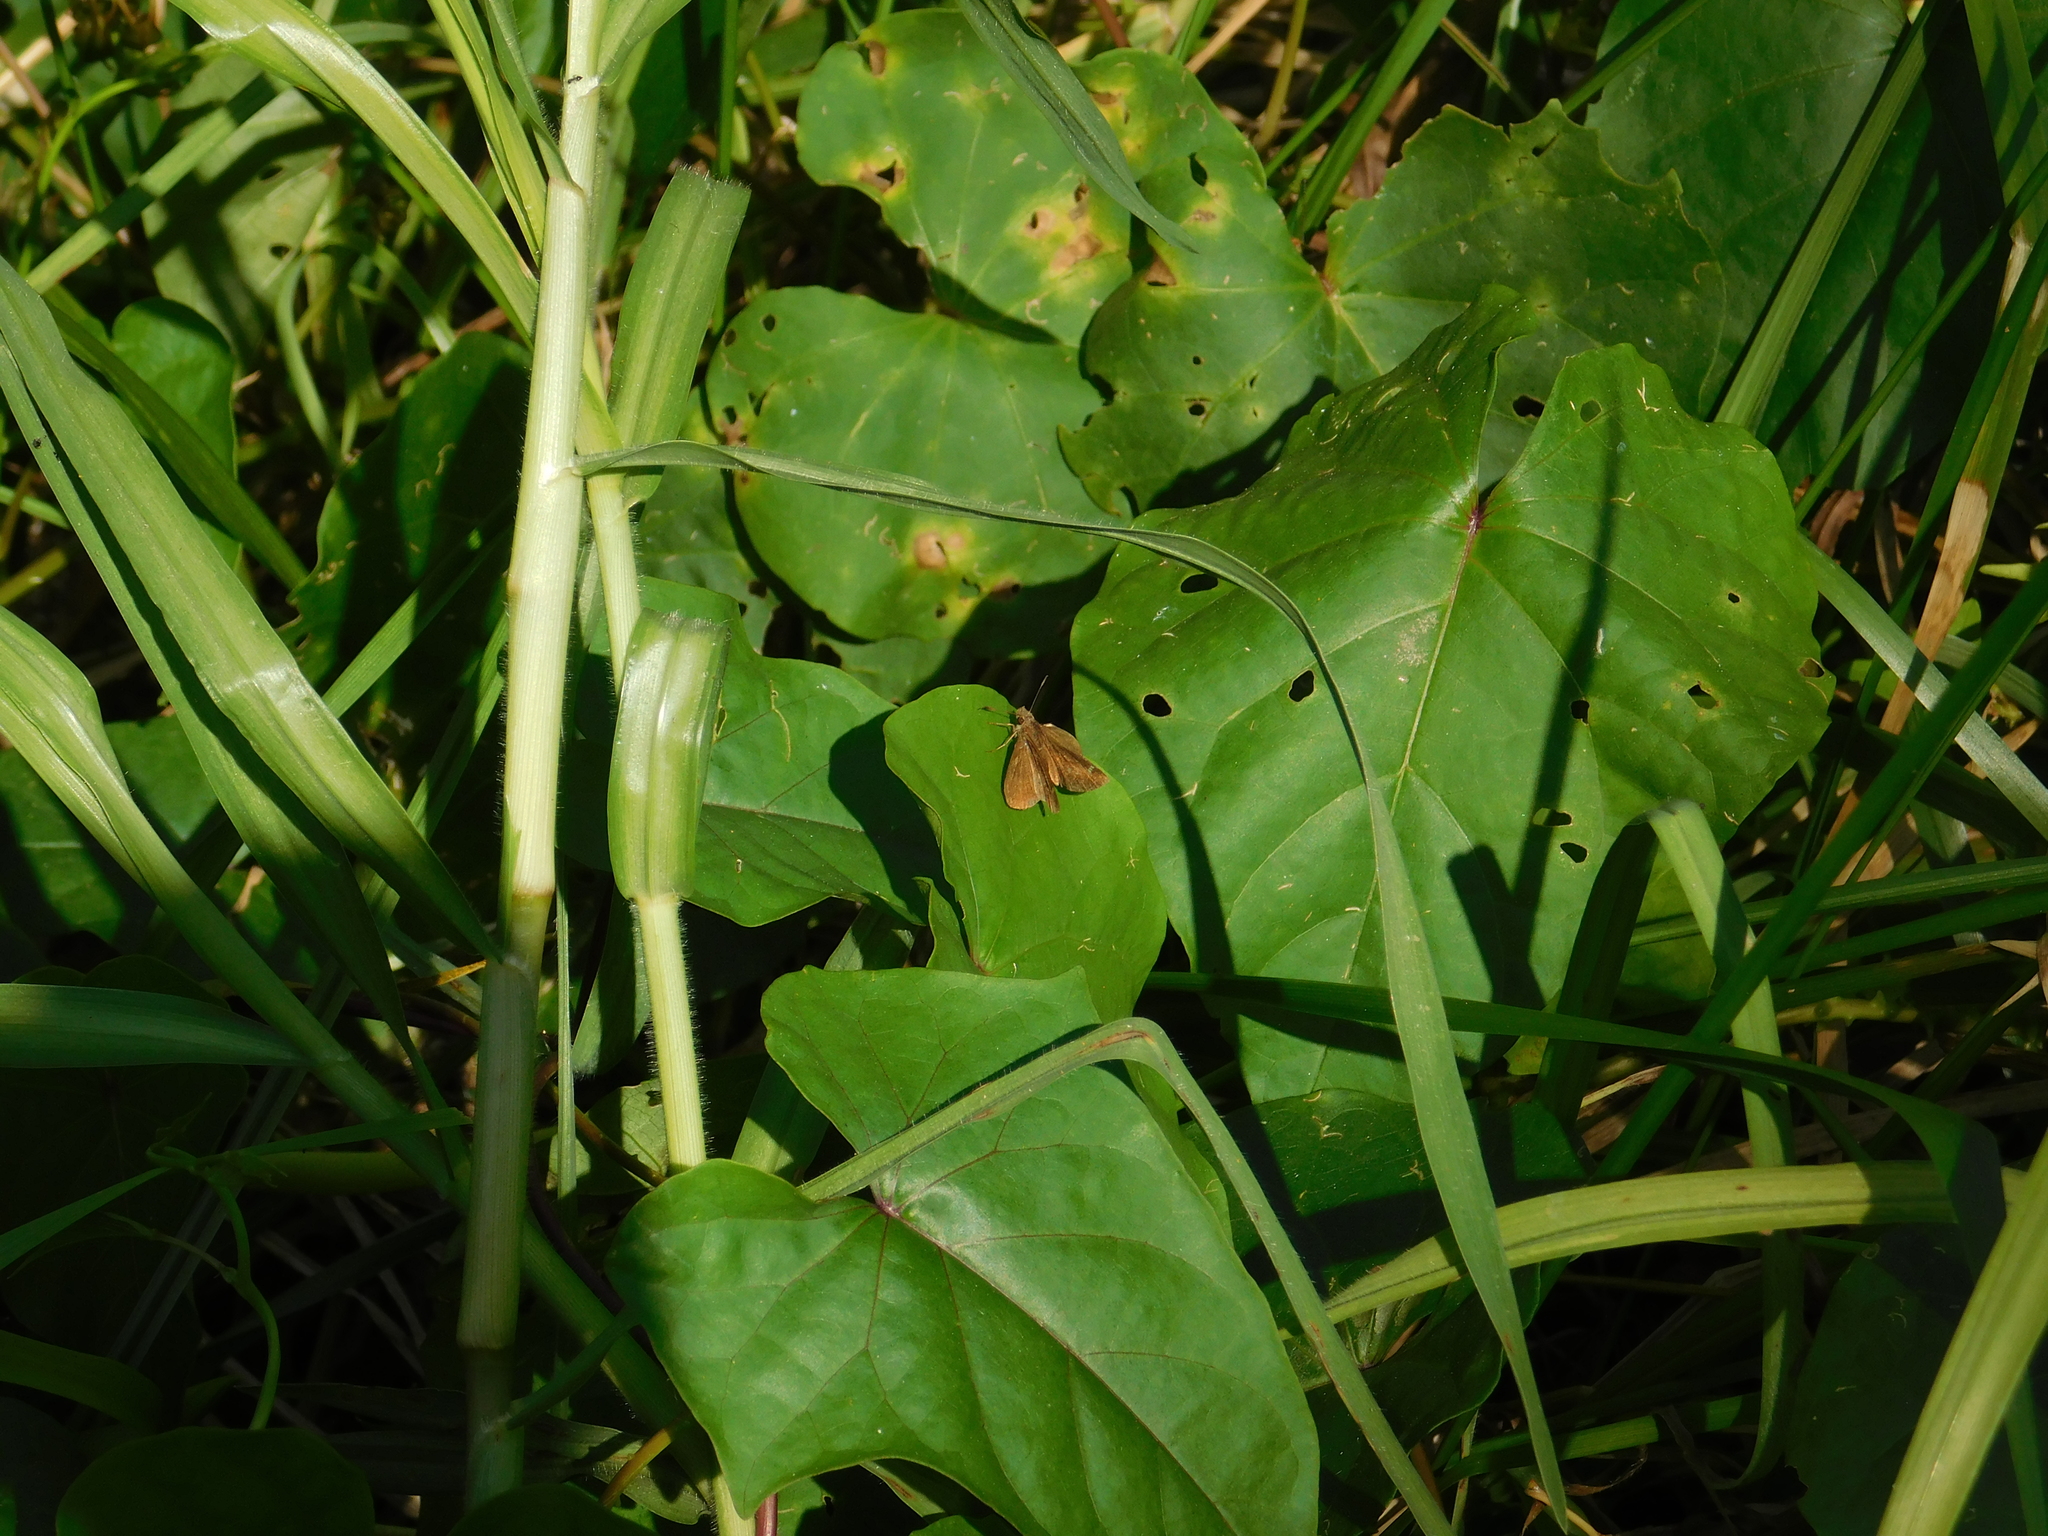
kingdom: Animalia
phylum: Arthropoda
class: Insecta
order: Lepidoptera
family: Hesperiidae
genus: Cymaenes
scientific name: Cymaenes
